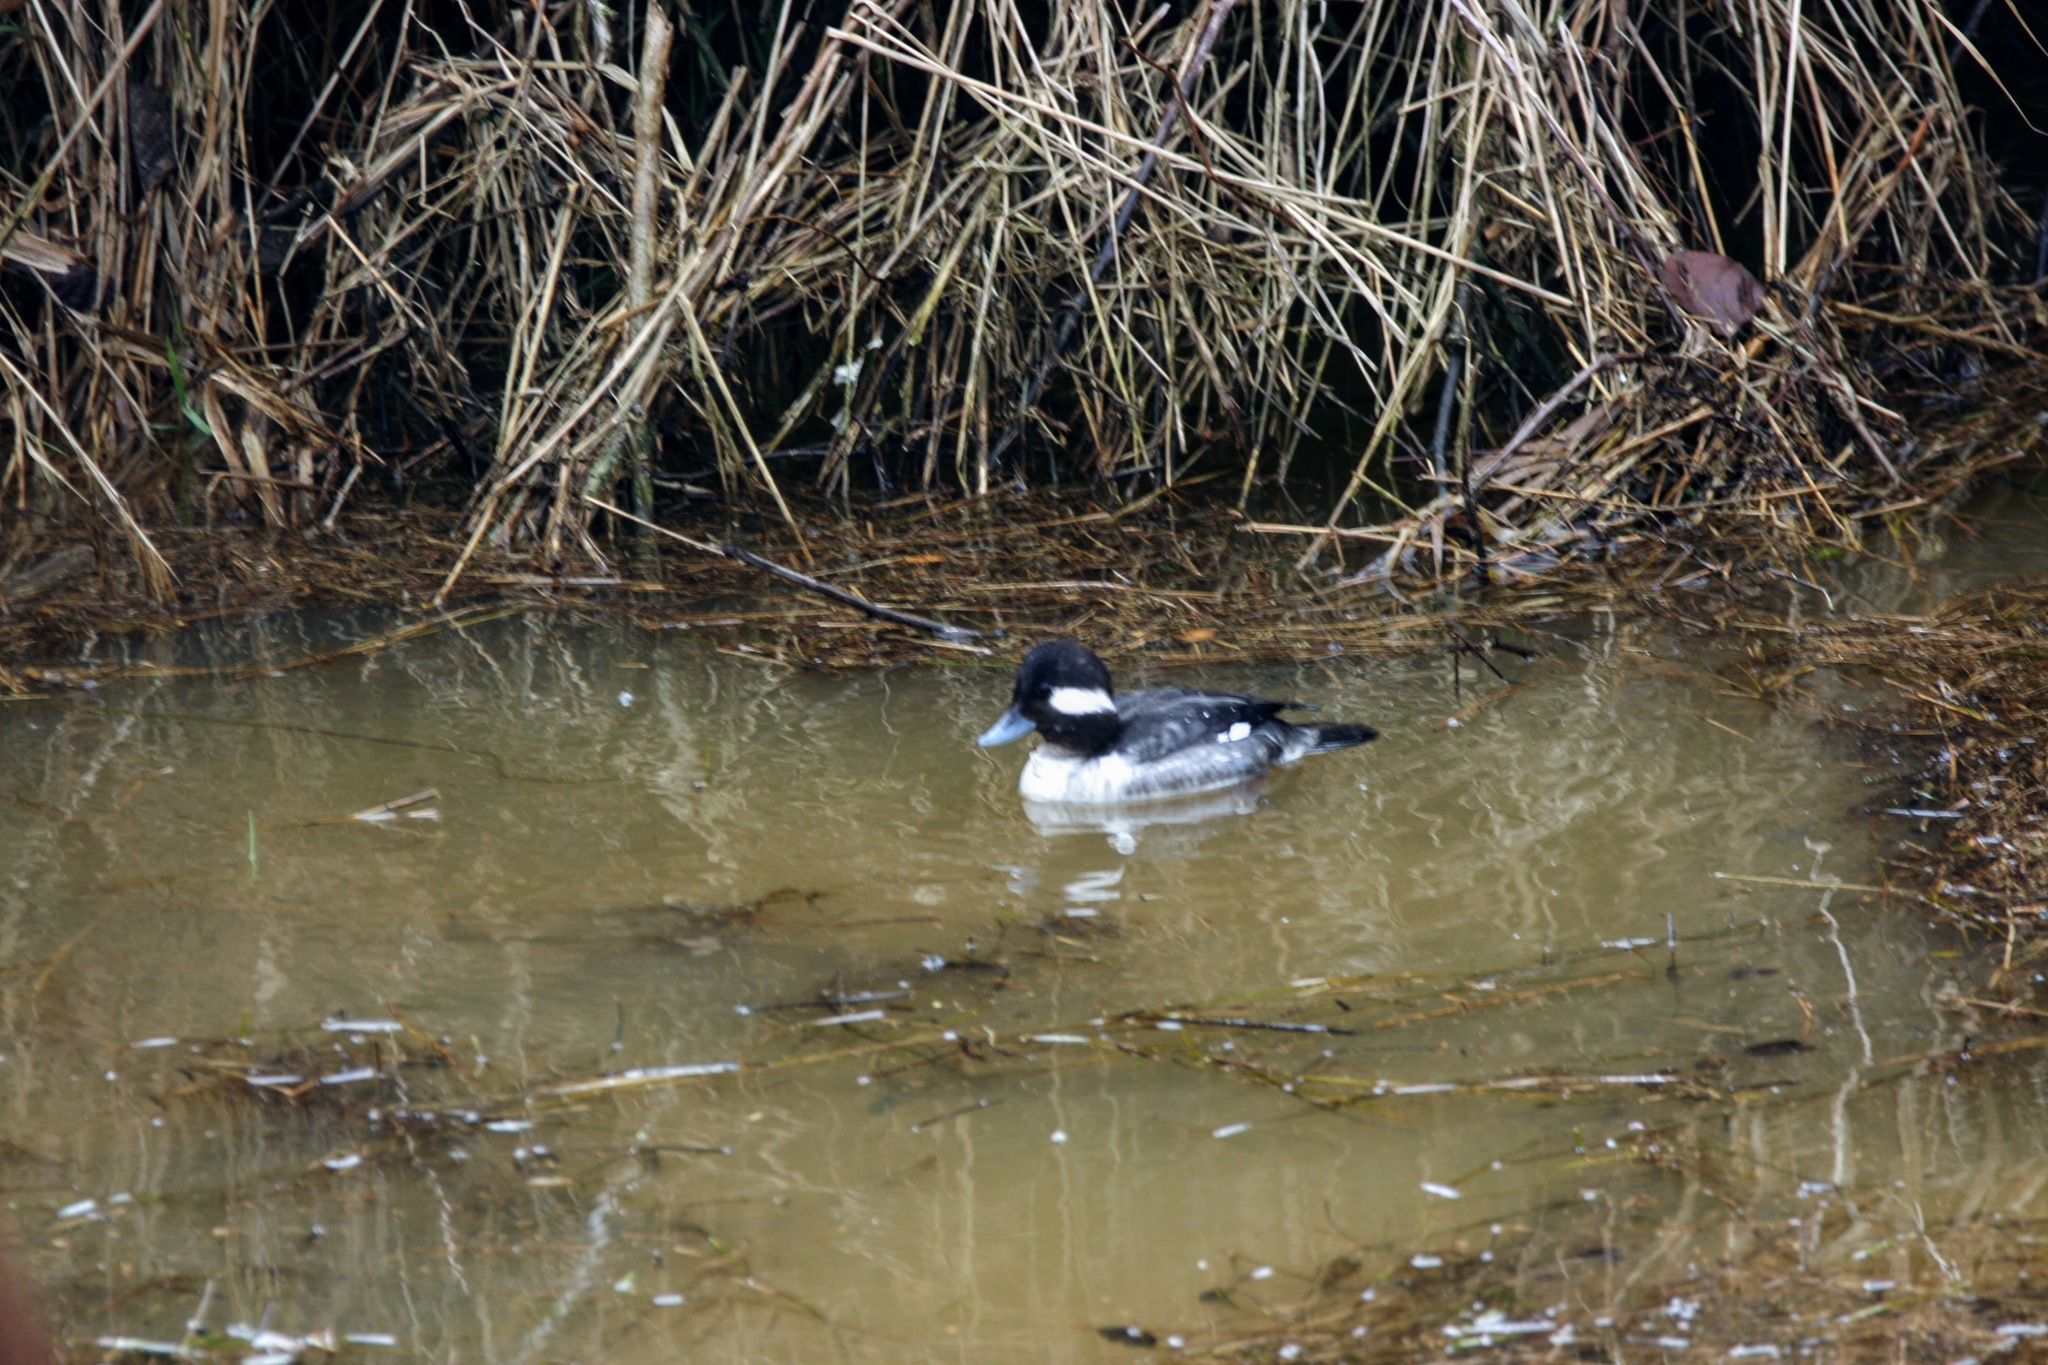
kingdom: Animalia
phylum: Chordata
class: Aves
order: Anseriformes
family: Anatidae
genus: Bucephala
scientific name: Bucephala albeola
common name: Bufflehead
